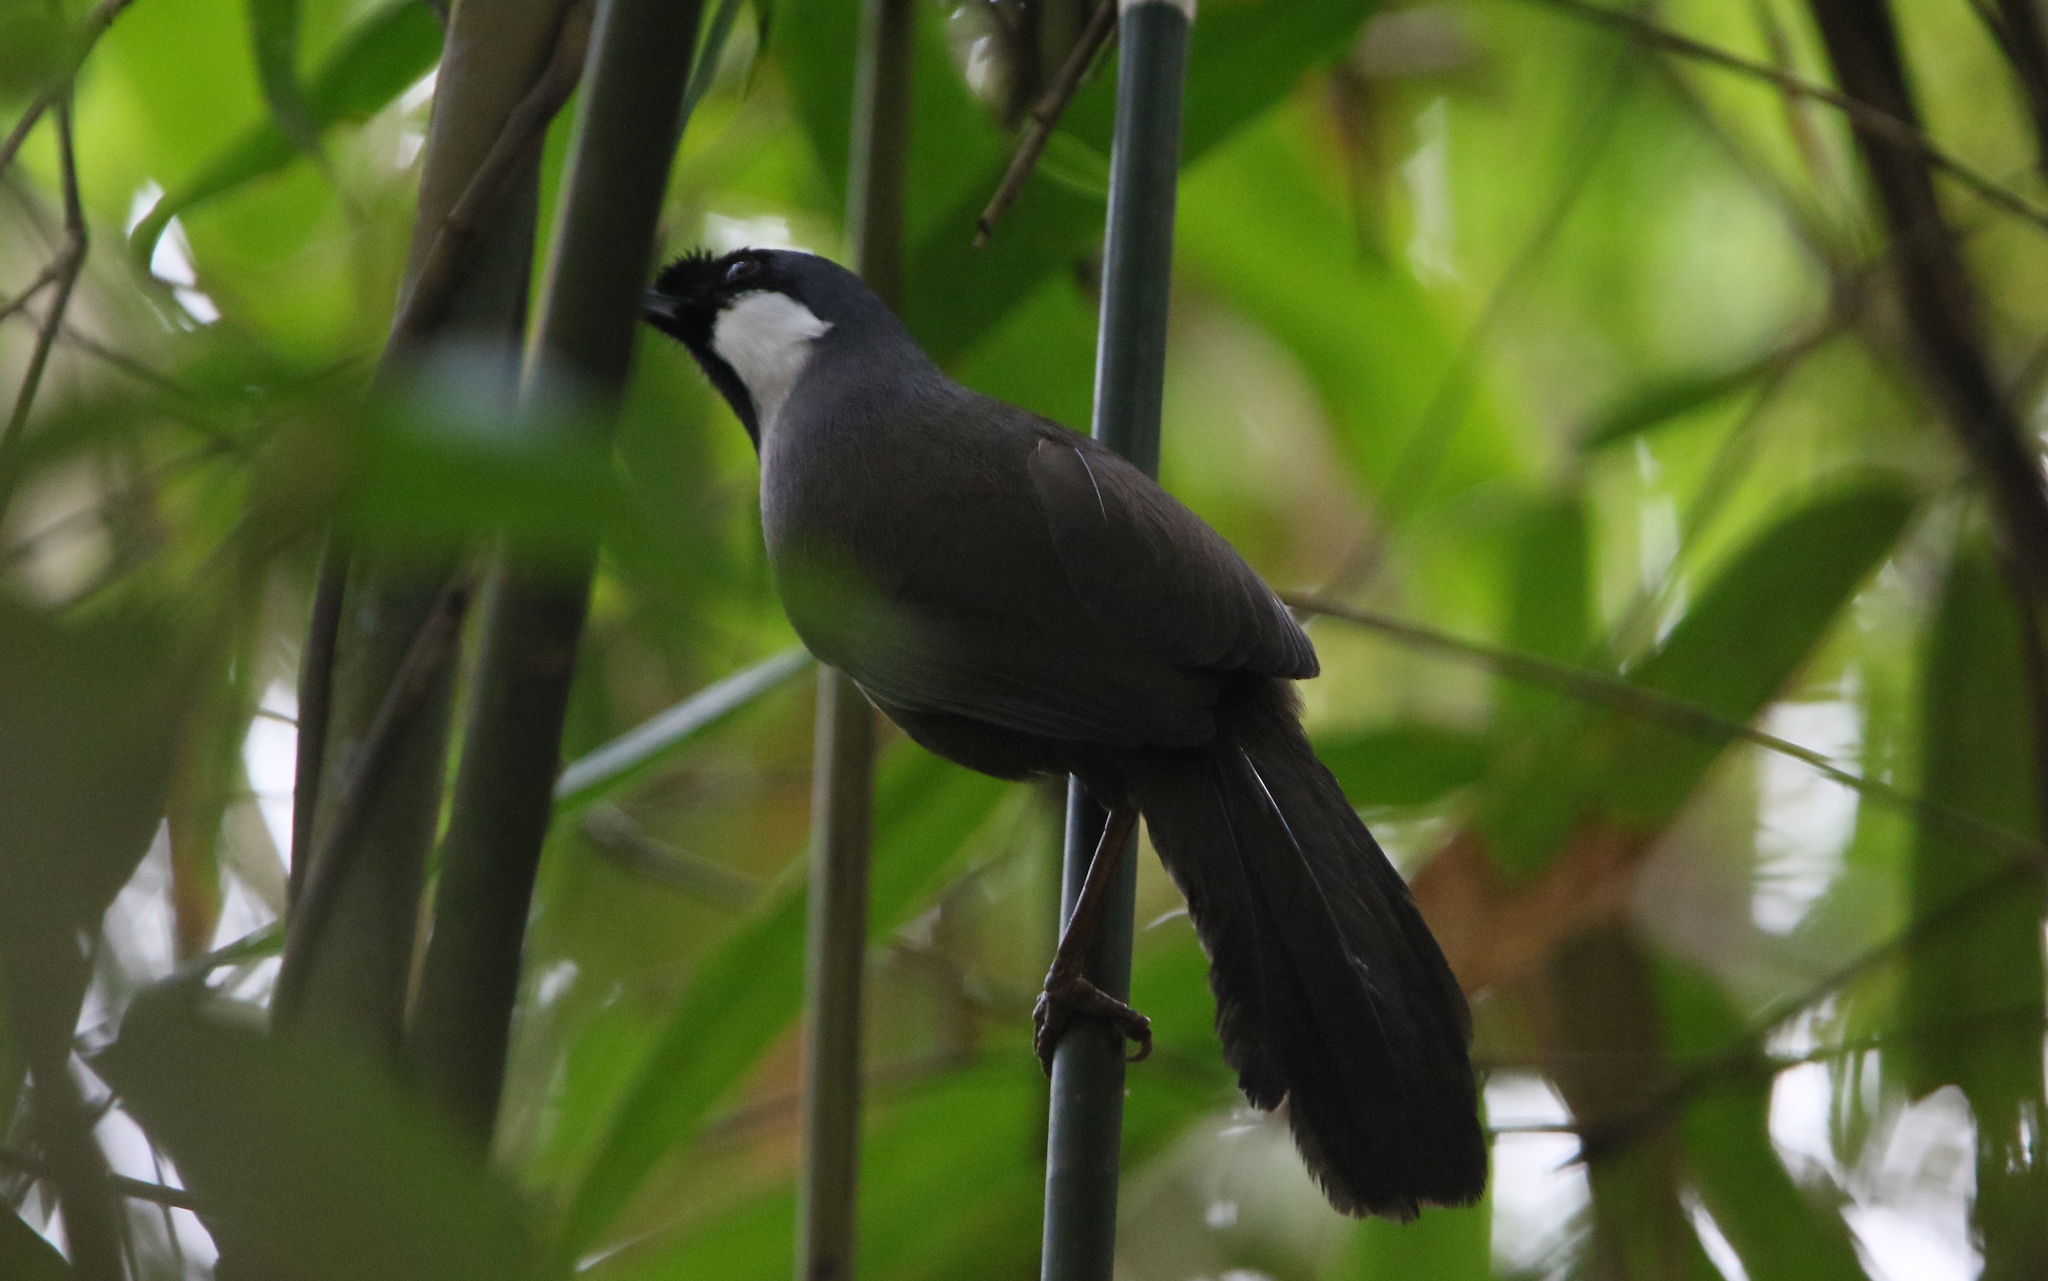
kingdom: Animalia
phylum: Chordata
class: Aves
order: Passeriformes
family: Leiothrichidae
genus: Garrulax
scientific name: Garrulax chinensis
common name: Black-throated laughingthrush
